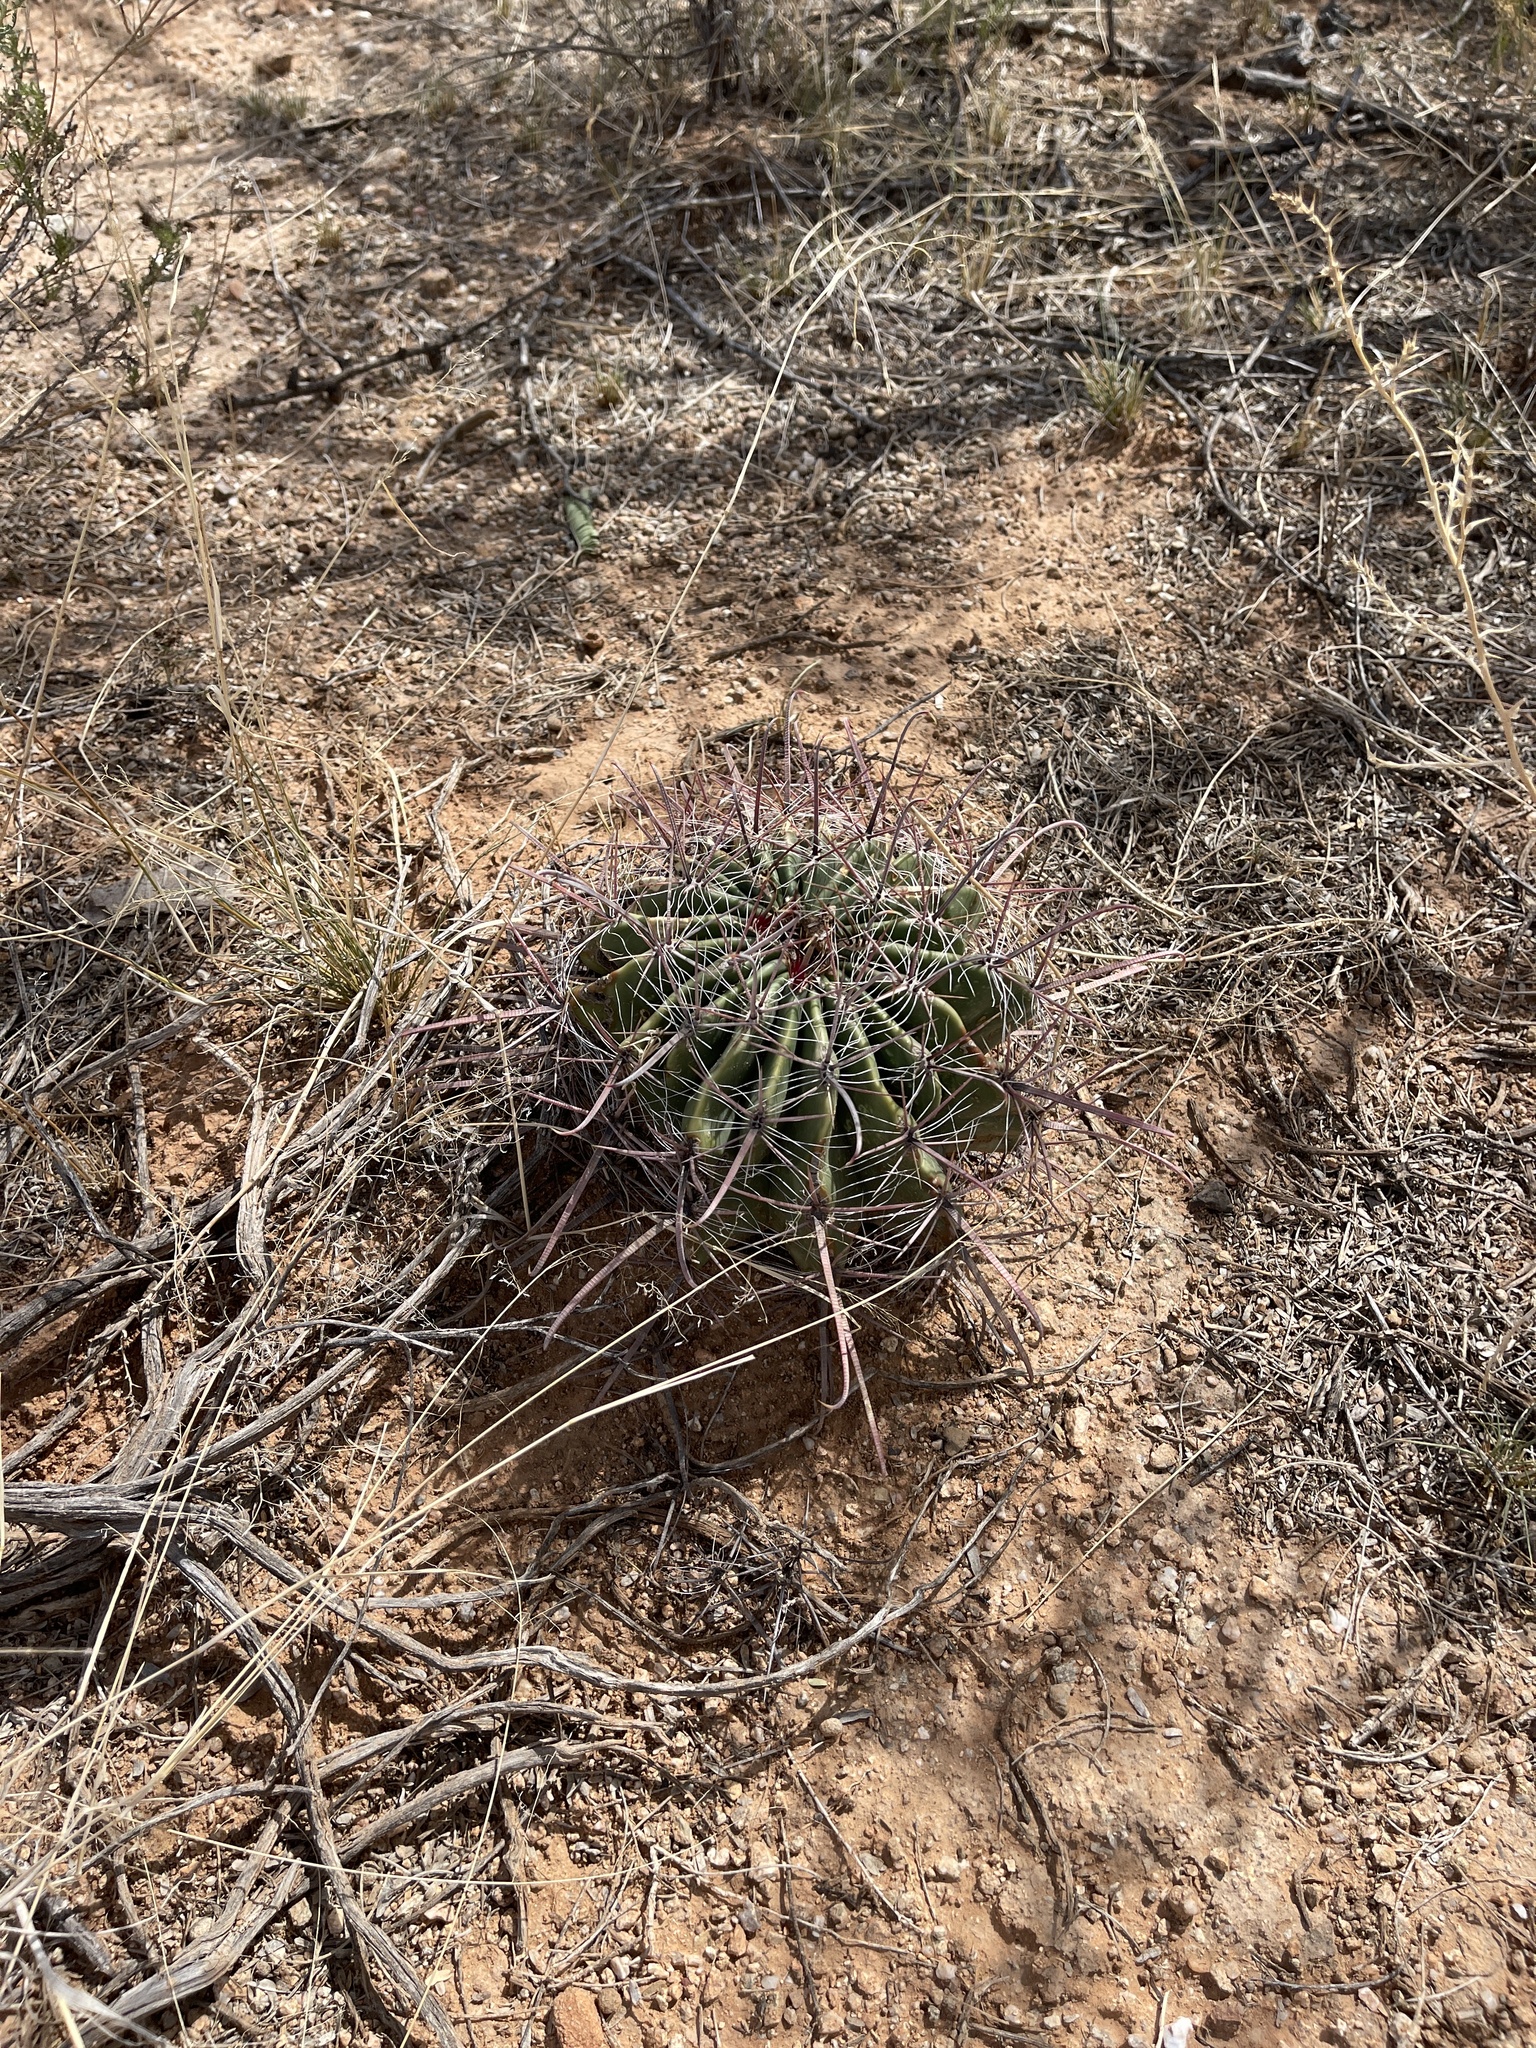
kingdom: Plantae
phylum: Tracheophyta
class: Magnoliopsida
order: Caryophyllales
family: Cactaceae
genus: Ferocactus
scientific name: Ferocactus wislizeni
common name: Candy barrel cactus
